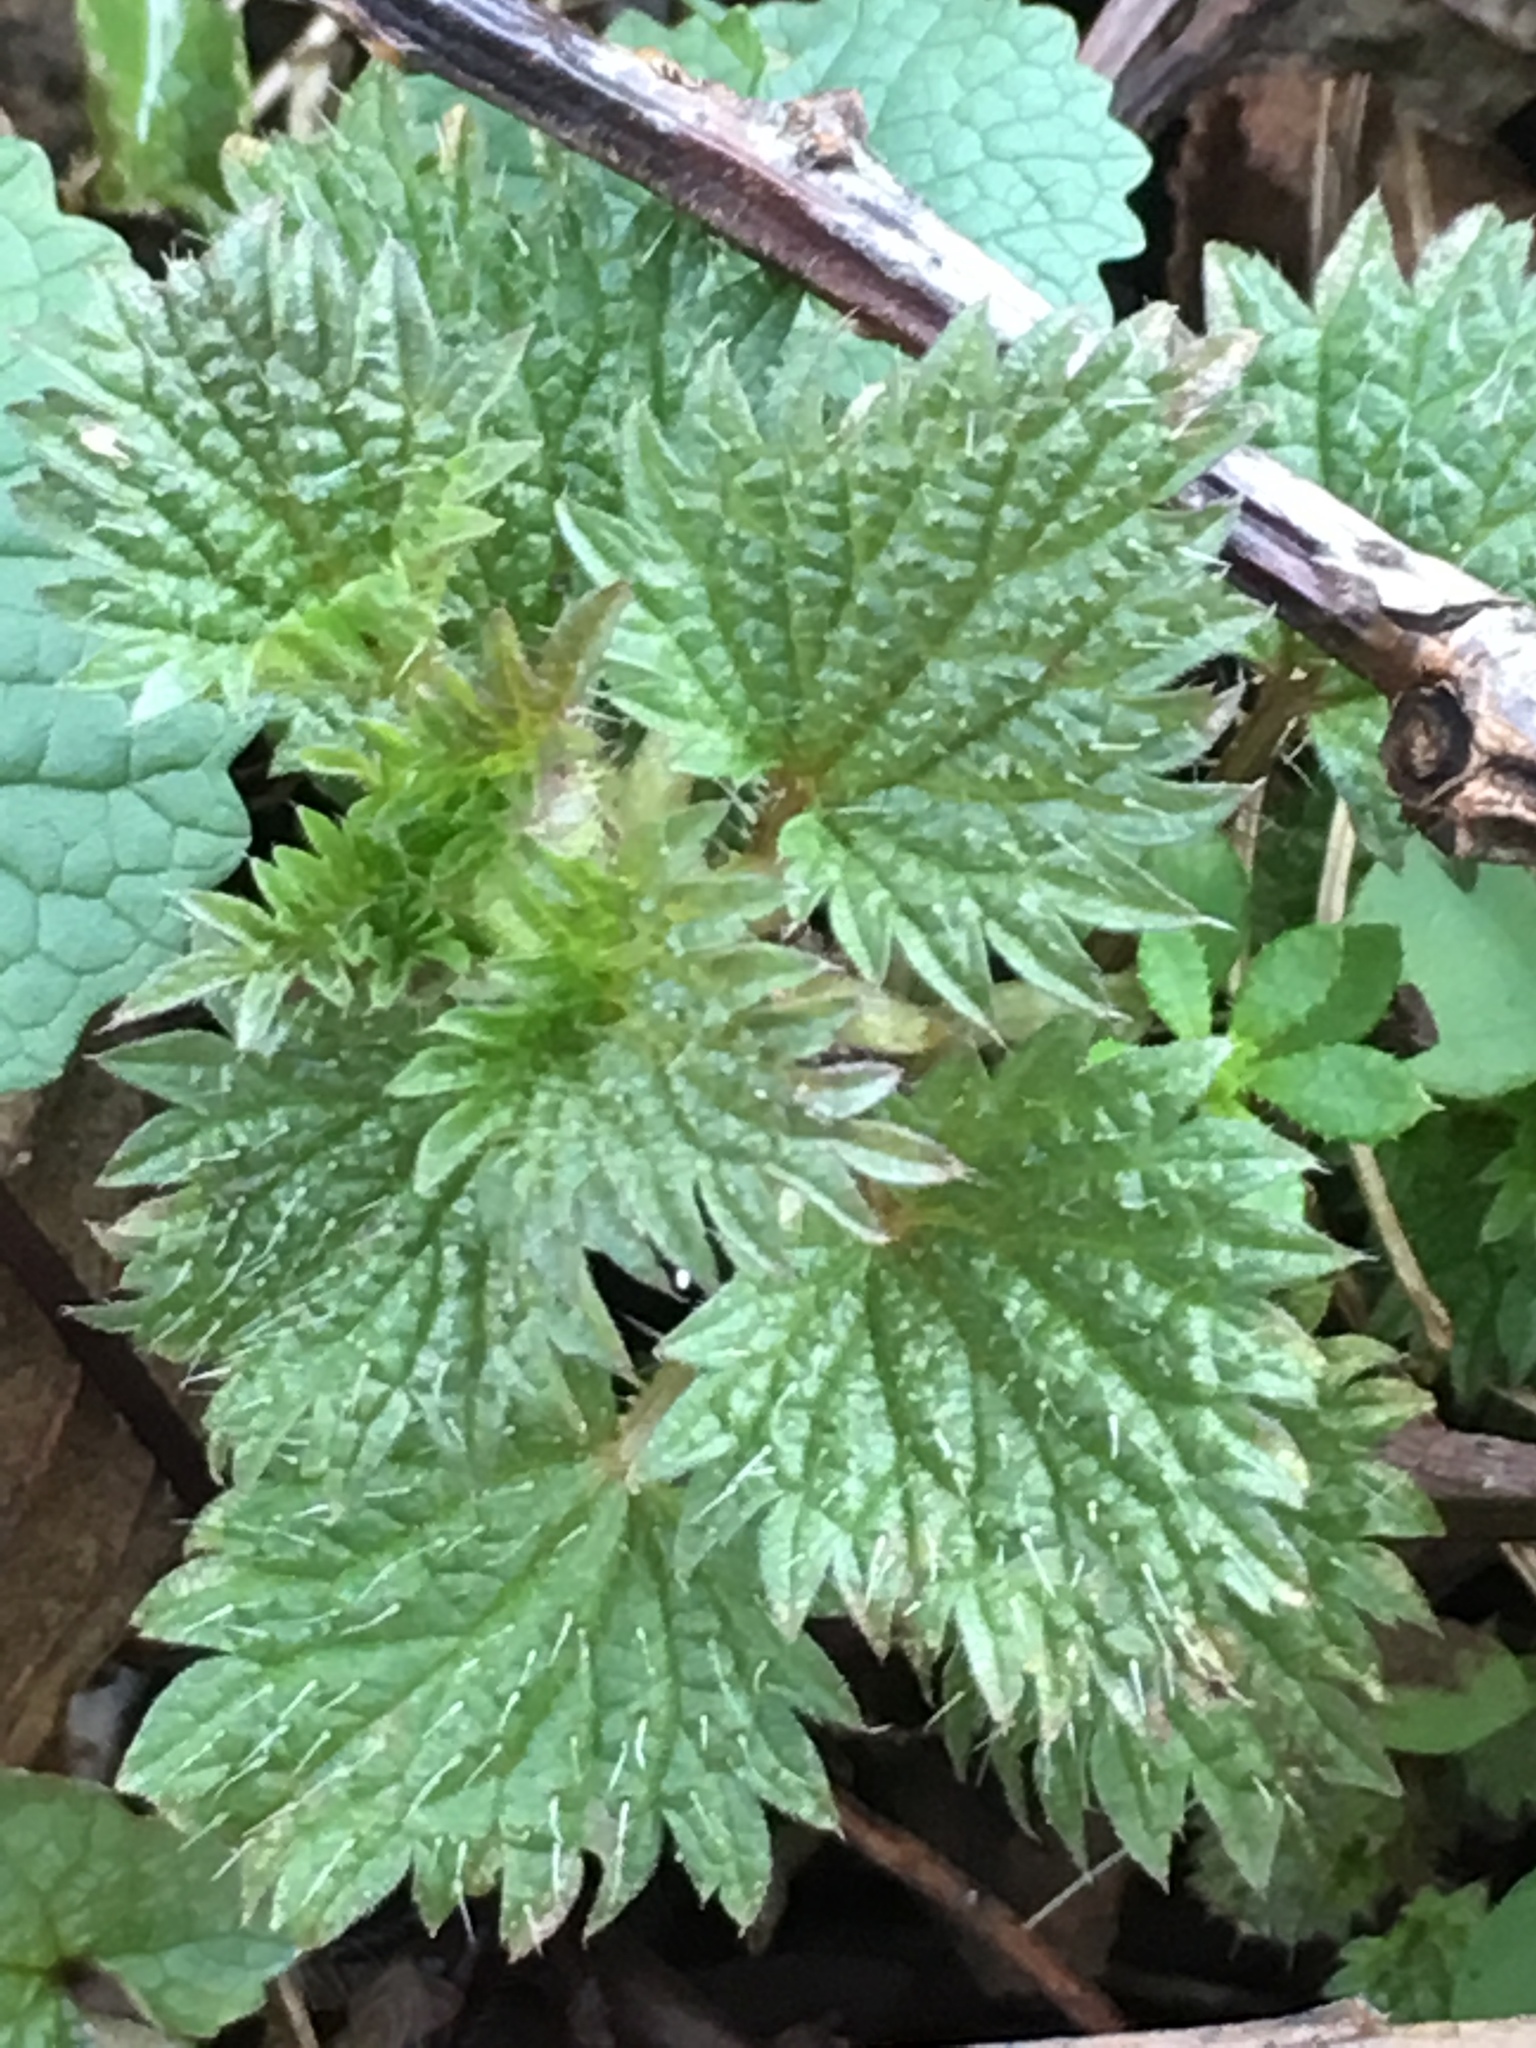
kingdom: Plantae
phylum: Tracheophyta
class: Magnoliopsida
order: Rosales
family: Urticaceae
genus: Urtica
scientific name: Urtica dioica
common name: Common nettle
